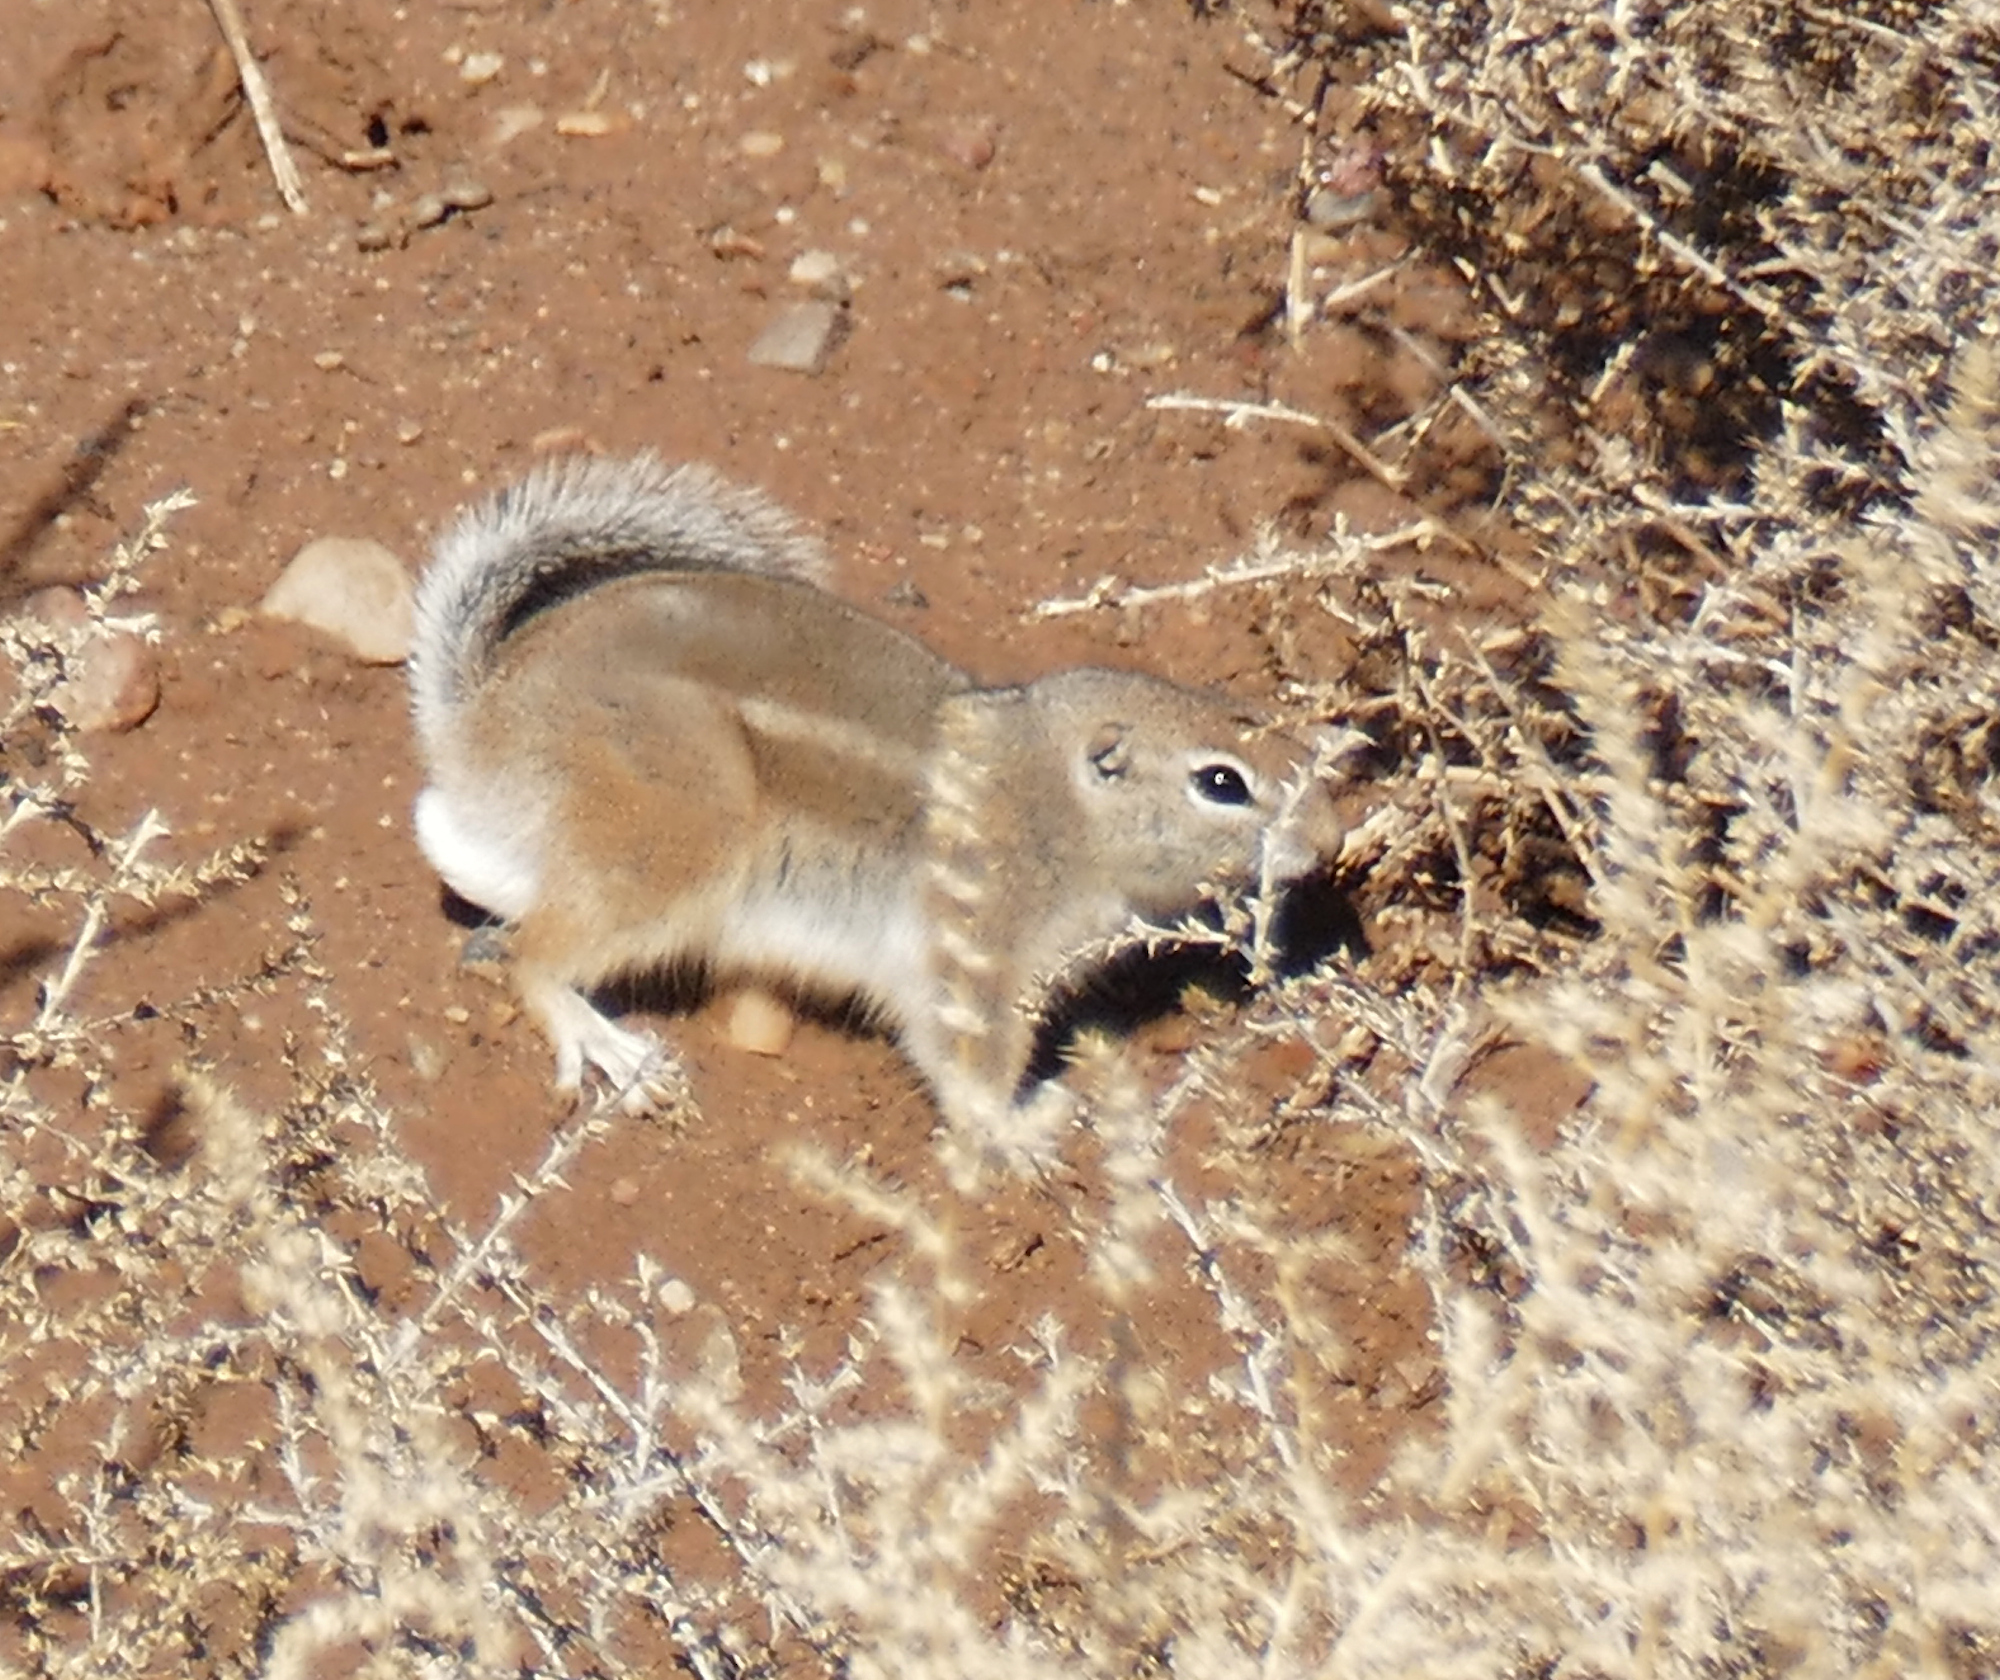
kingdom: Animalia
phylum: Chordata
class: Mammalia
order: Rodentia
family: Sciuridae
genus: Ammospermophilus
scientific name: Ammospermophilus leucurus
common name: White-tailed antelope squirrel
